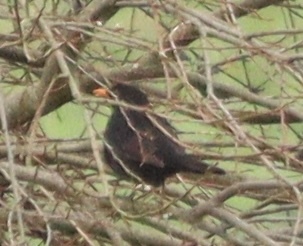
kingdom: Animalia
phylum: Chordata
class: Aves
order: Passeriformes
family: Turdidae
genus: Turdus
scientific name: Turdus merula
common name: Common blackbird
